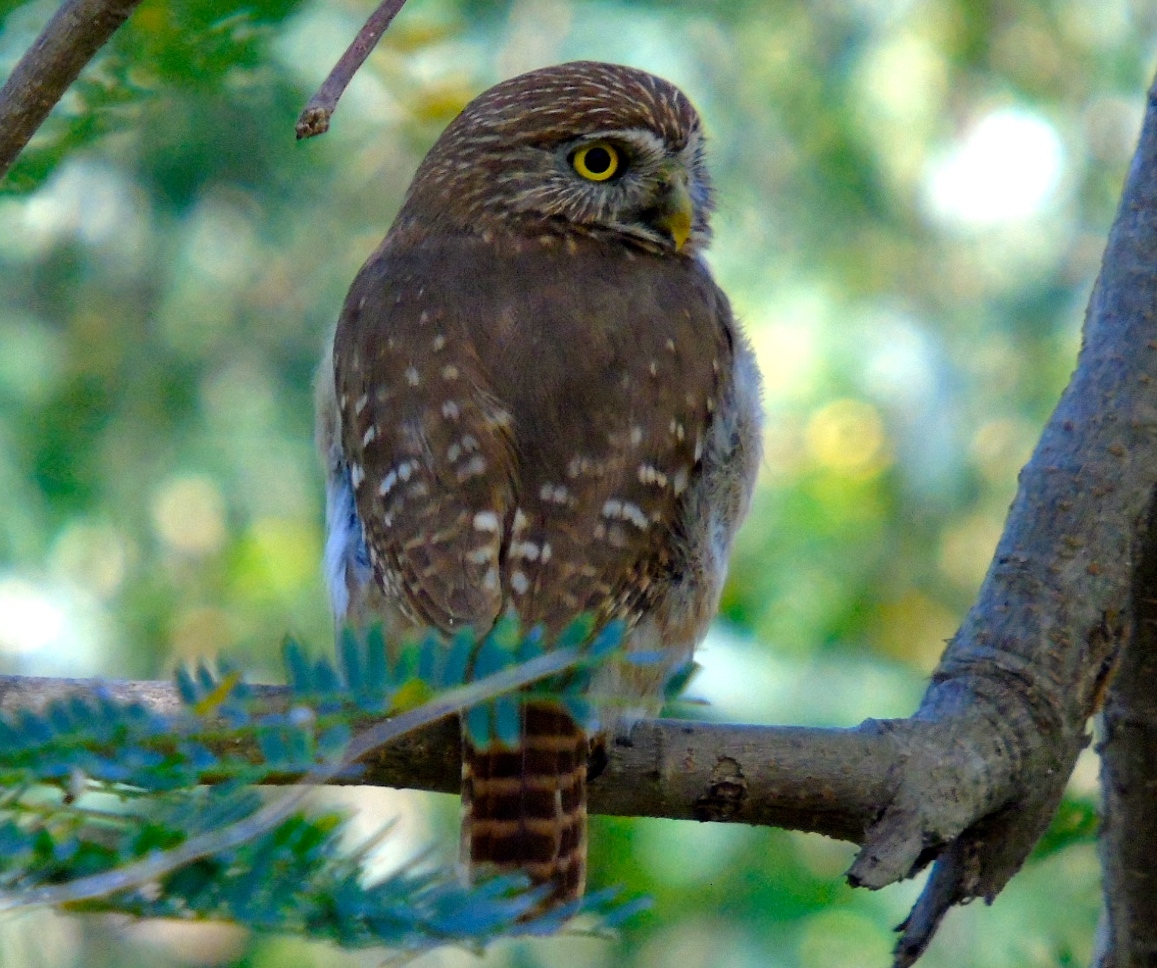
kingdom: Animalia
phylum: Chordata
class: Aves
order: Strigiformes
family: Strigidae
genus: Glaucidium
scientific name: Glaucidium brasilianum
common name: Ferruginous pygmy-owl
